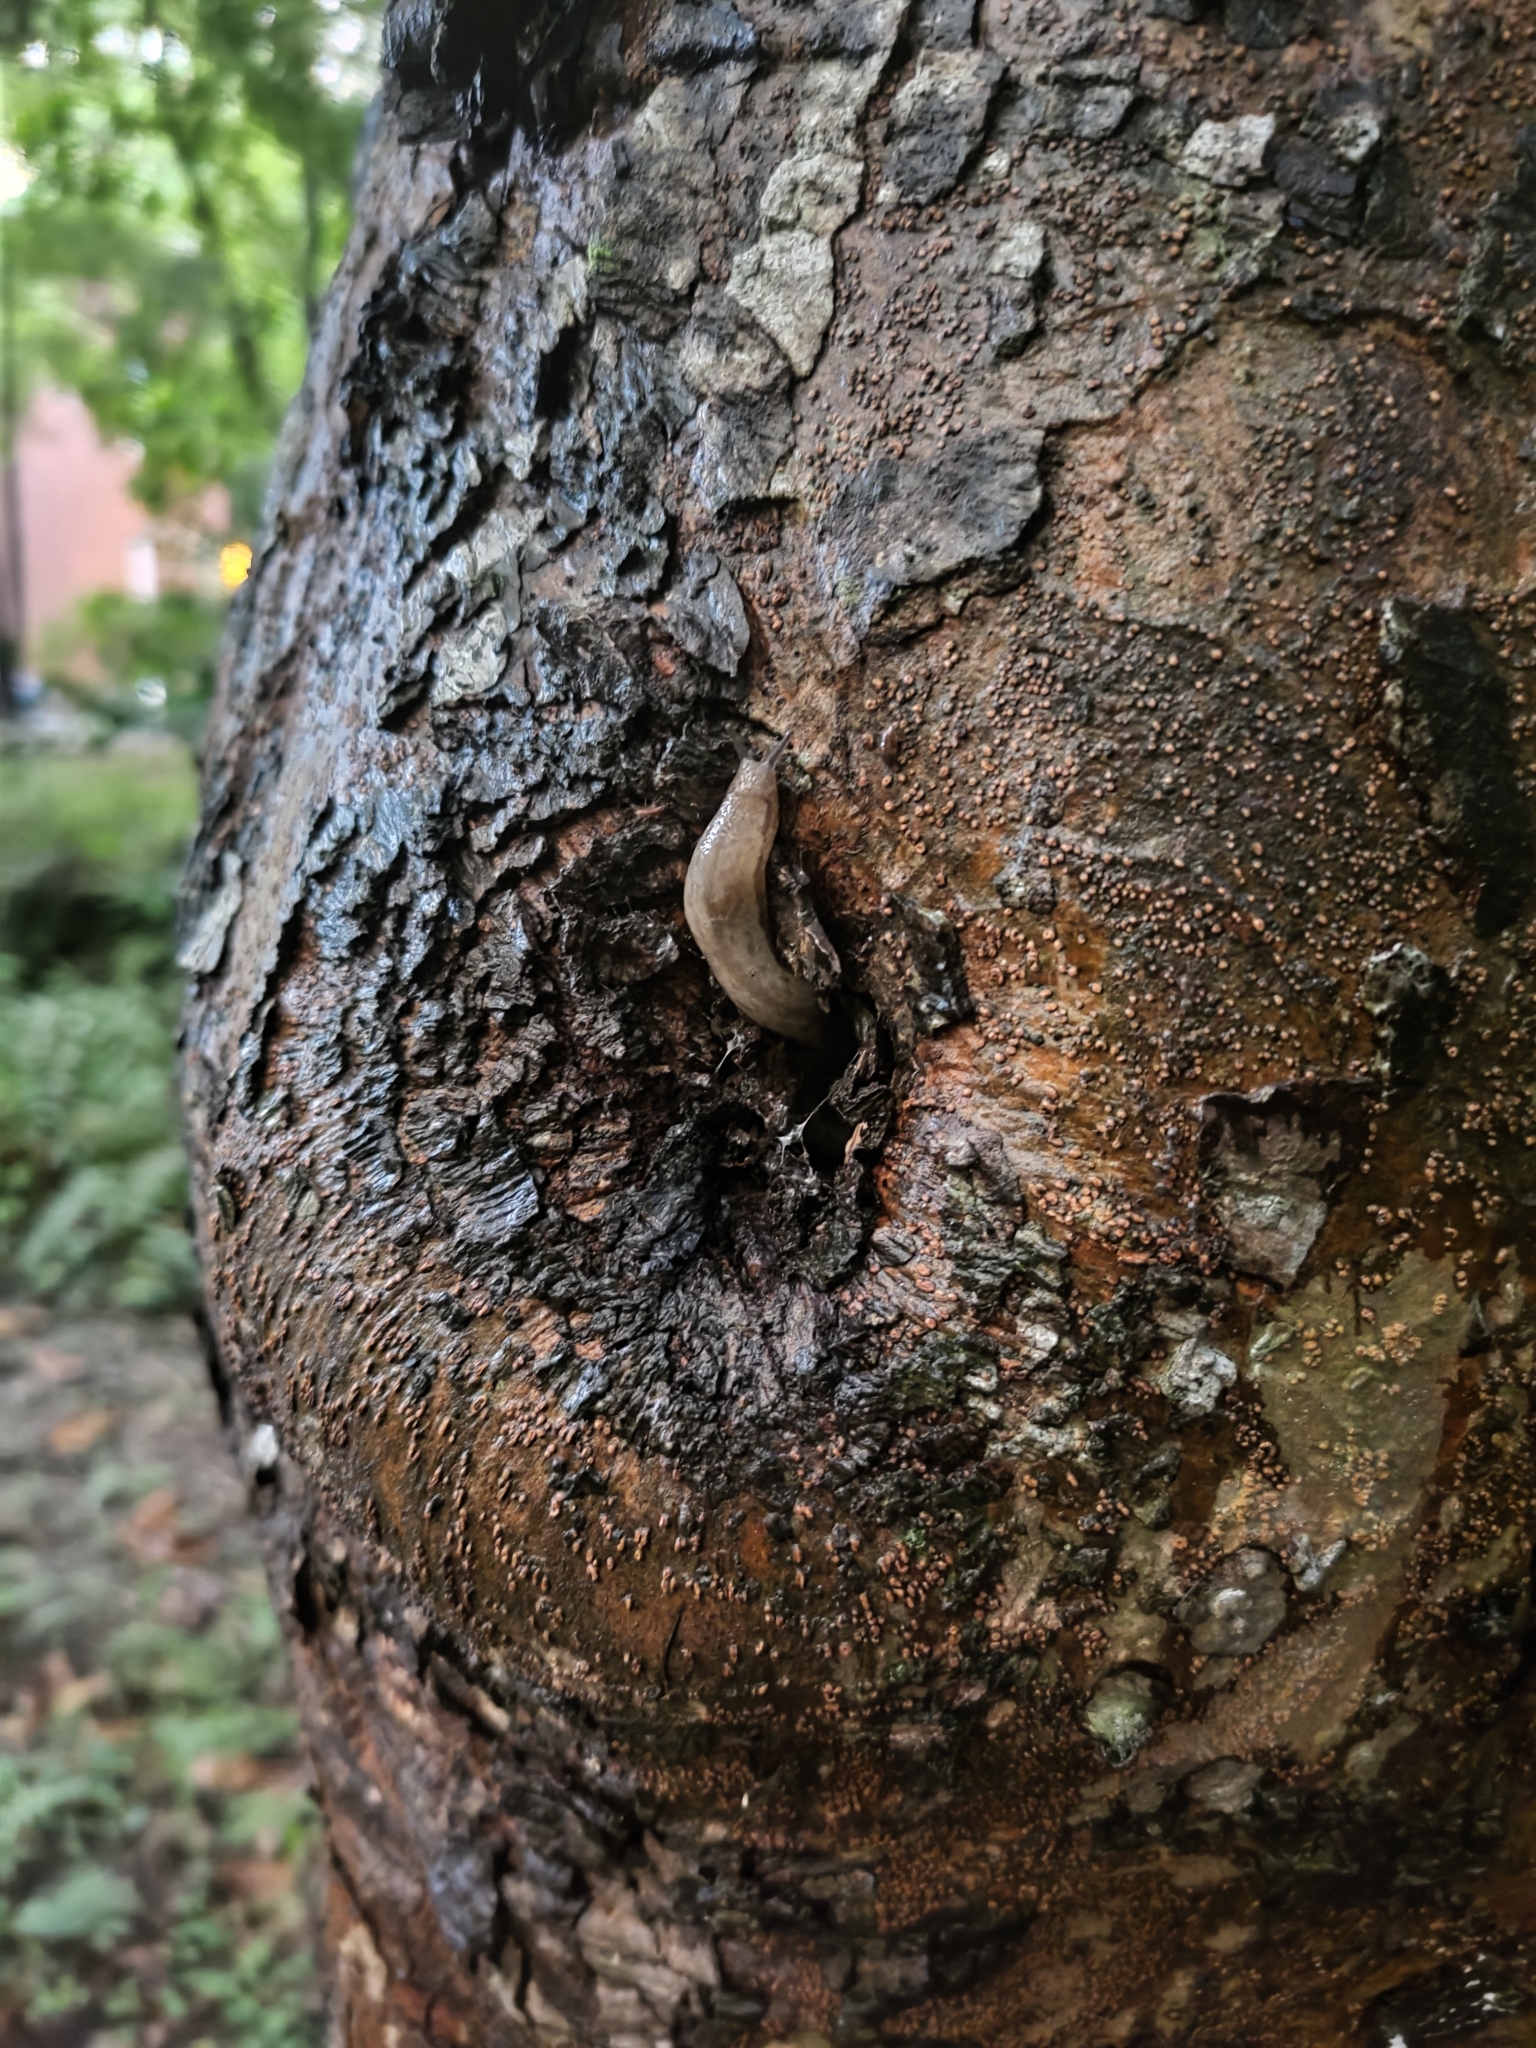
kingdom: Animalia
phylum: Mollusca
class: Gastropoda
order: Stylommatophora
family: Philomycidae
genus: Meghimatium
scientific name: Meghimatium bilineatum
